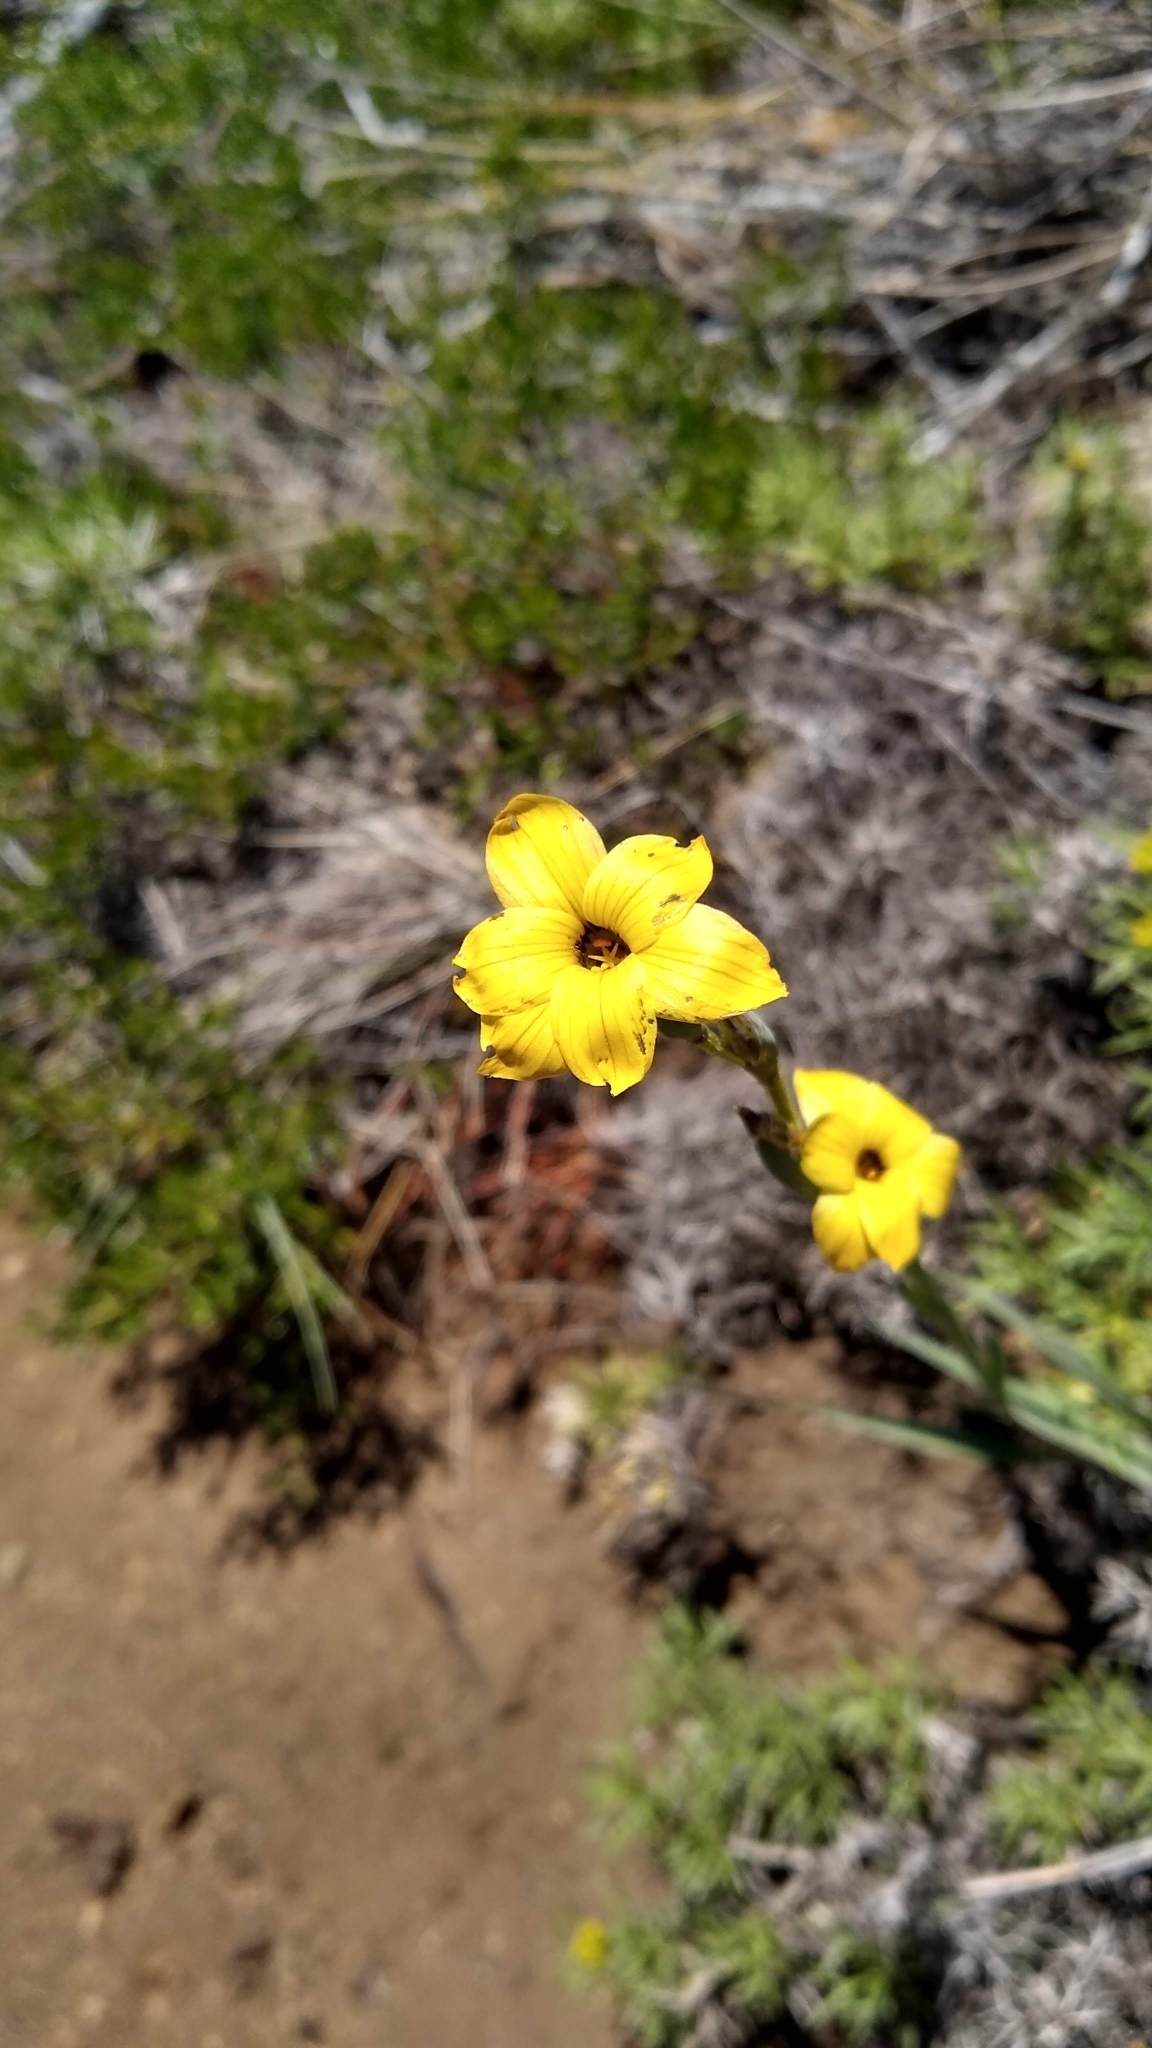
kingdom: Plantae
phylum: Tracheophyta
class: Liliopsida
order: Asparagales
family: Iridaceae
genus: Sisyrinchium
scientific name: Sisyrinchium arenarium
